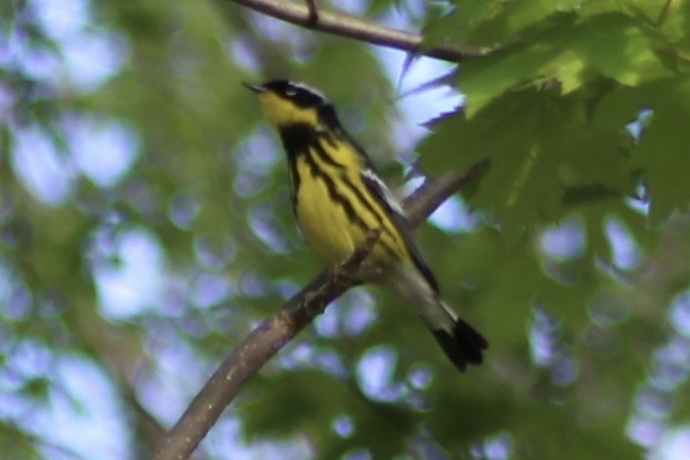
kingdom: Animalia
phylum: Chordata
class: Aves
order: Passeriformes
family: Parulidae
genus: Setophaga
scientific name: Setophaga magnolia
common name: Magnolia warbler
